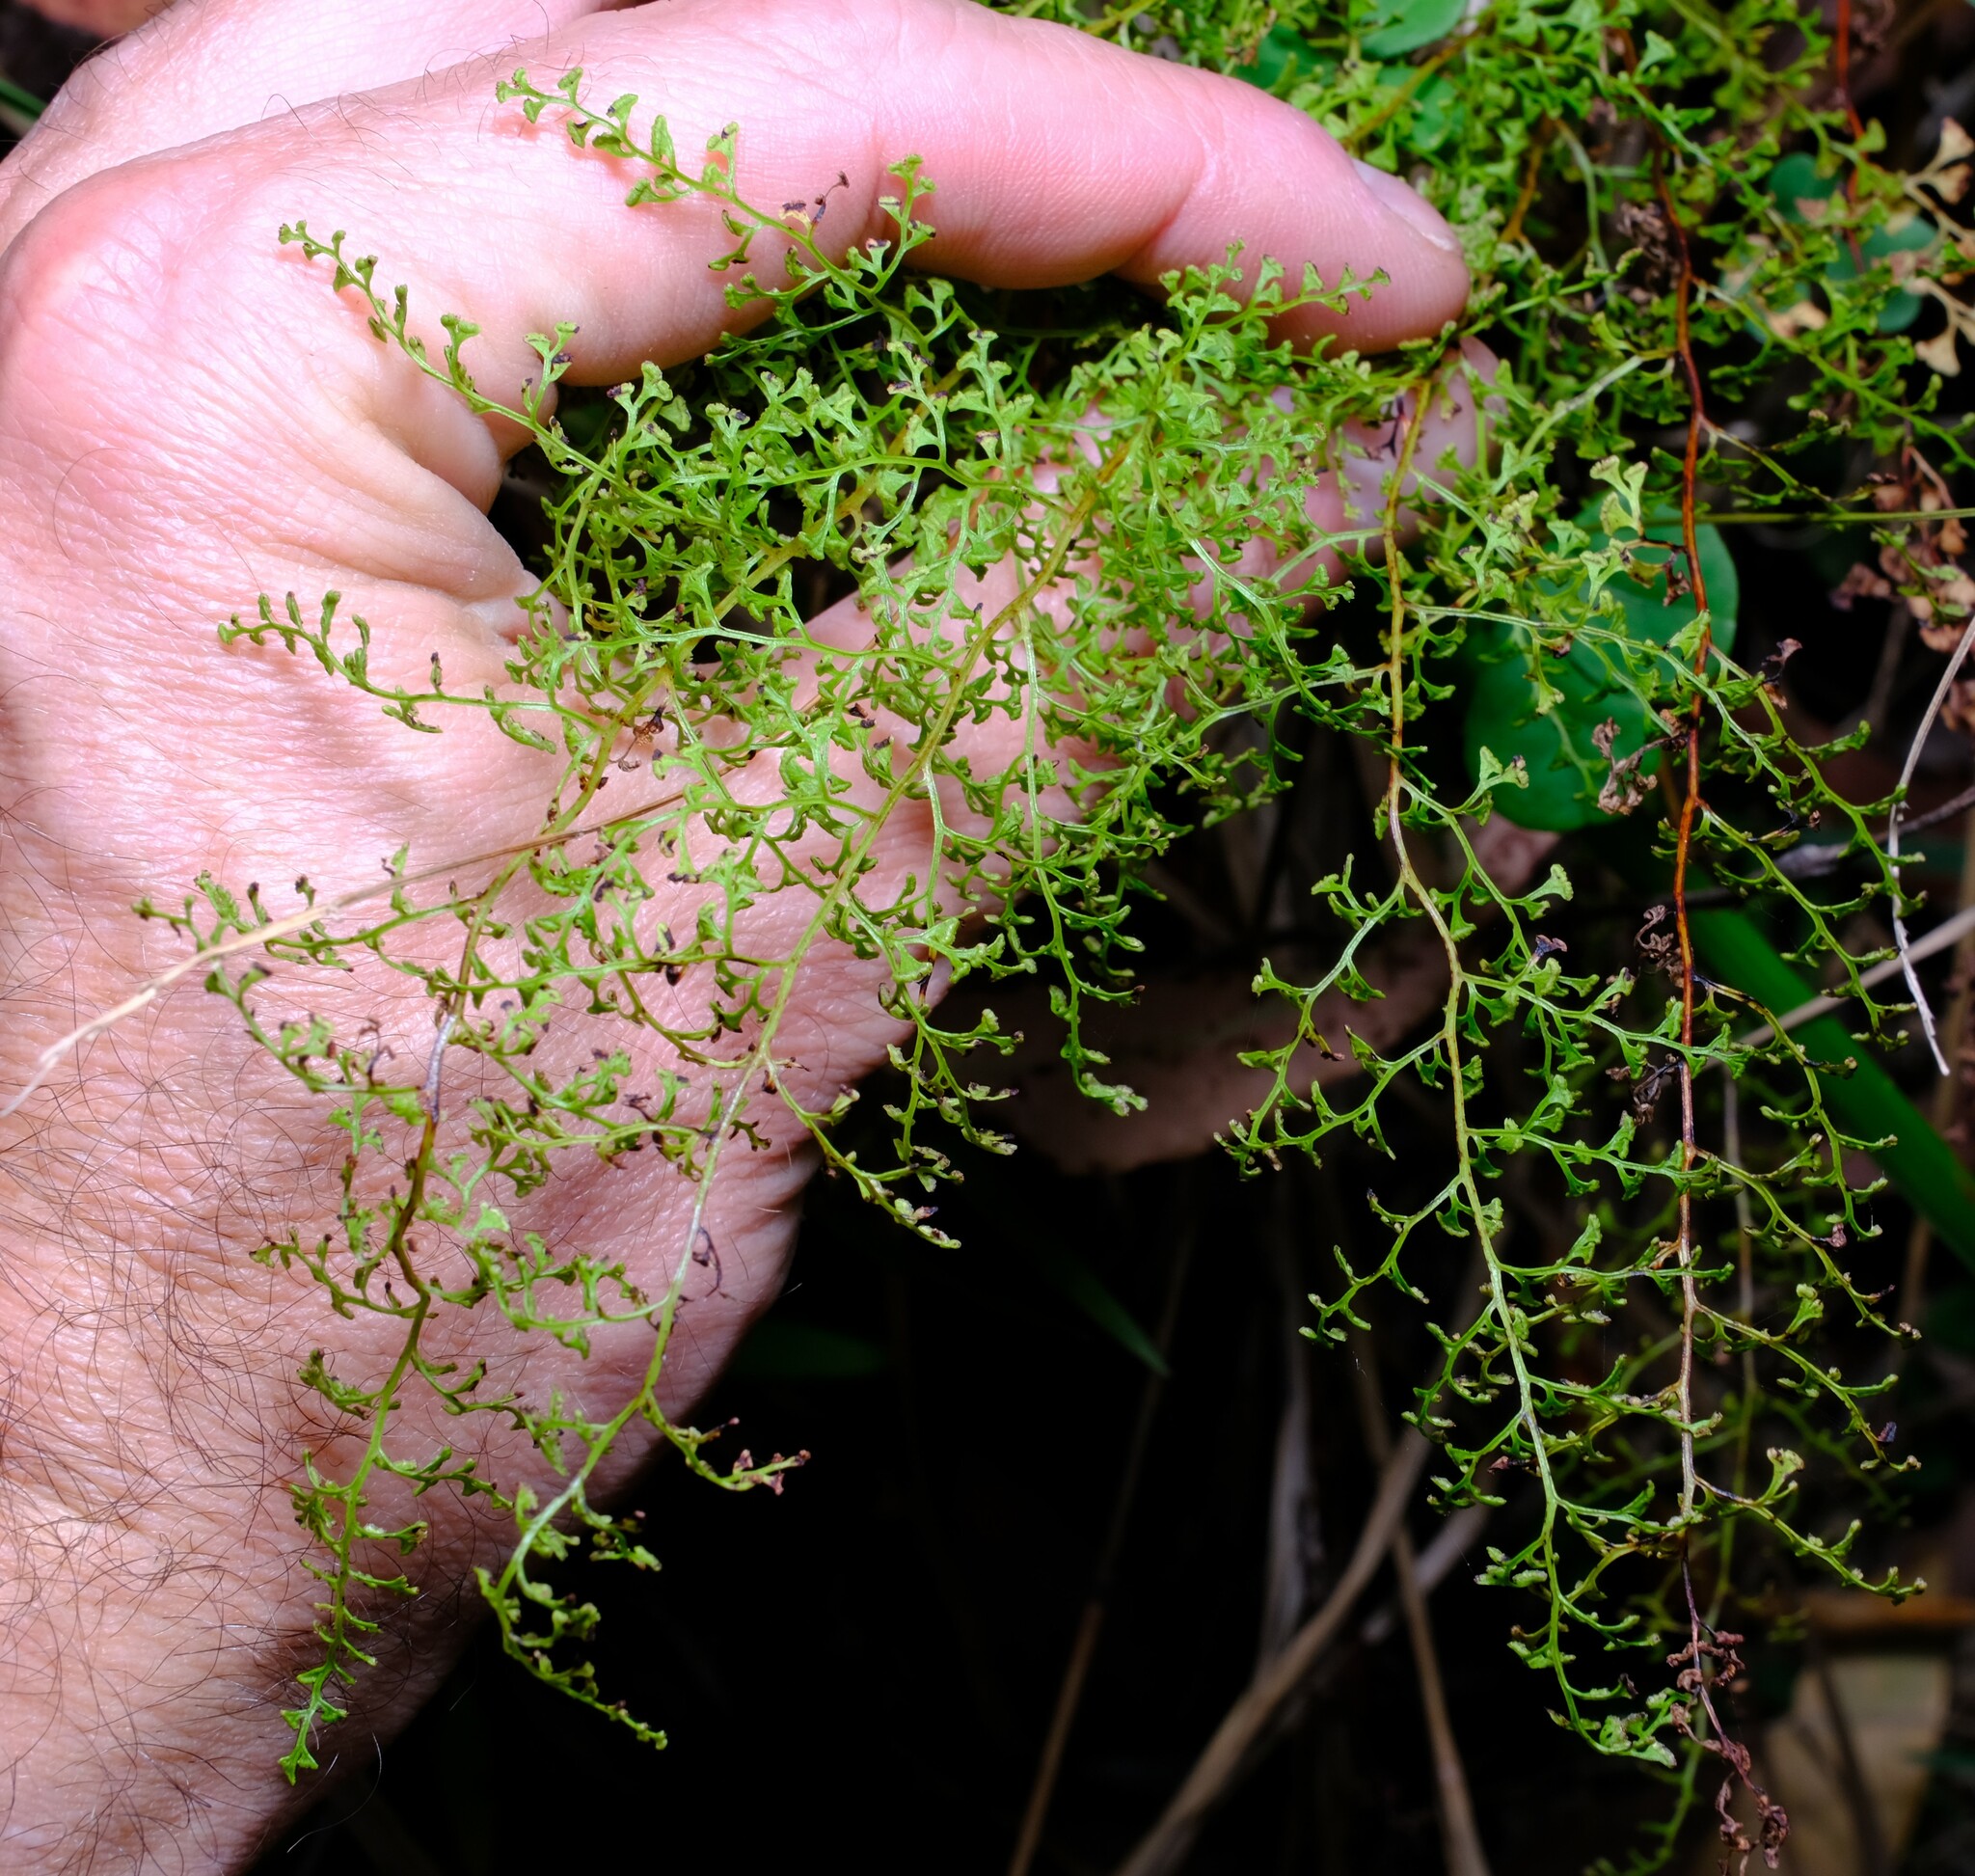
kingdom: Plantae
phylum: Tracheophyta
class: Polypodiopsida
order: Polypodiales
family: Lindsaeaceae
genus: Lindsaea
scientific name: Lindsaea microphylla
